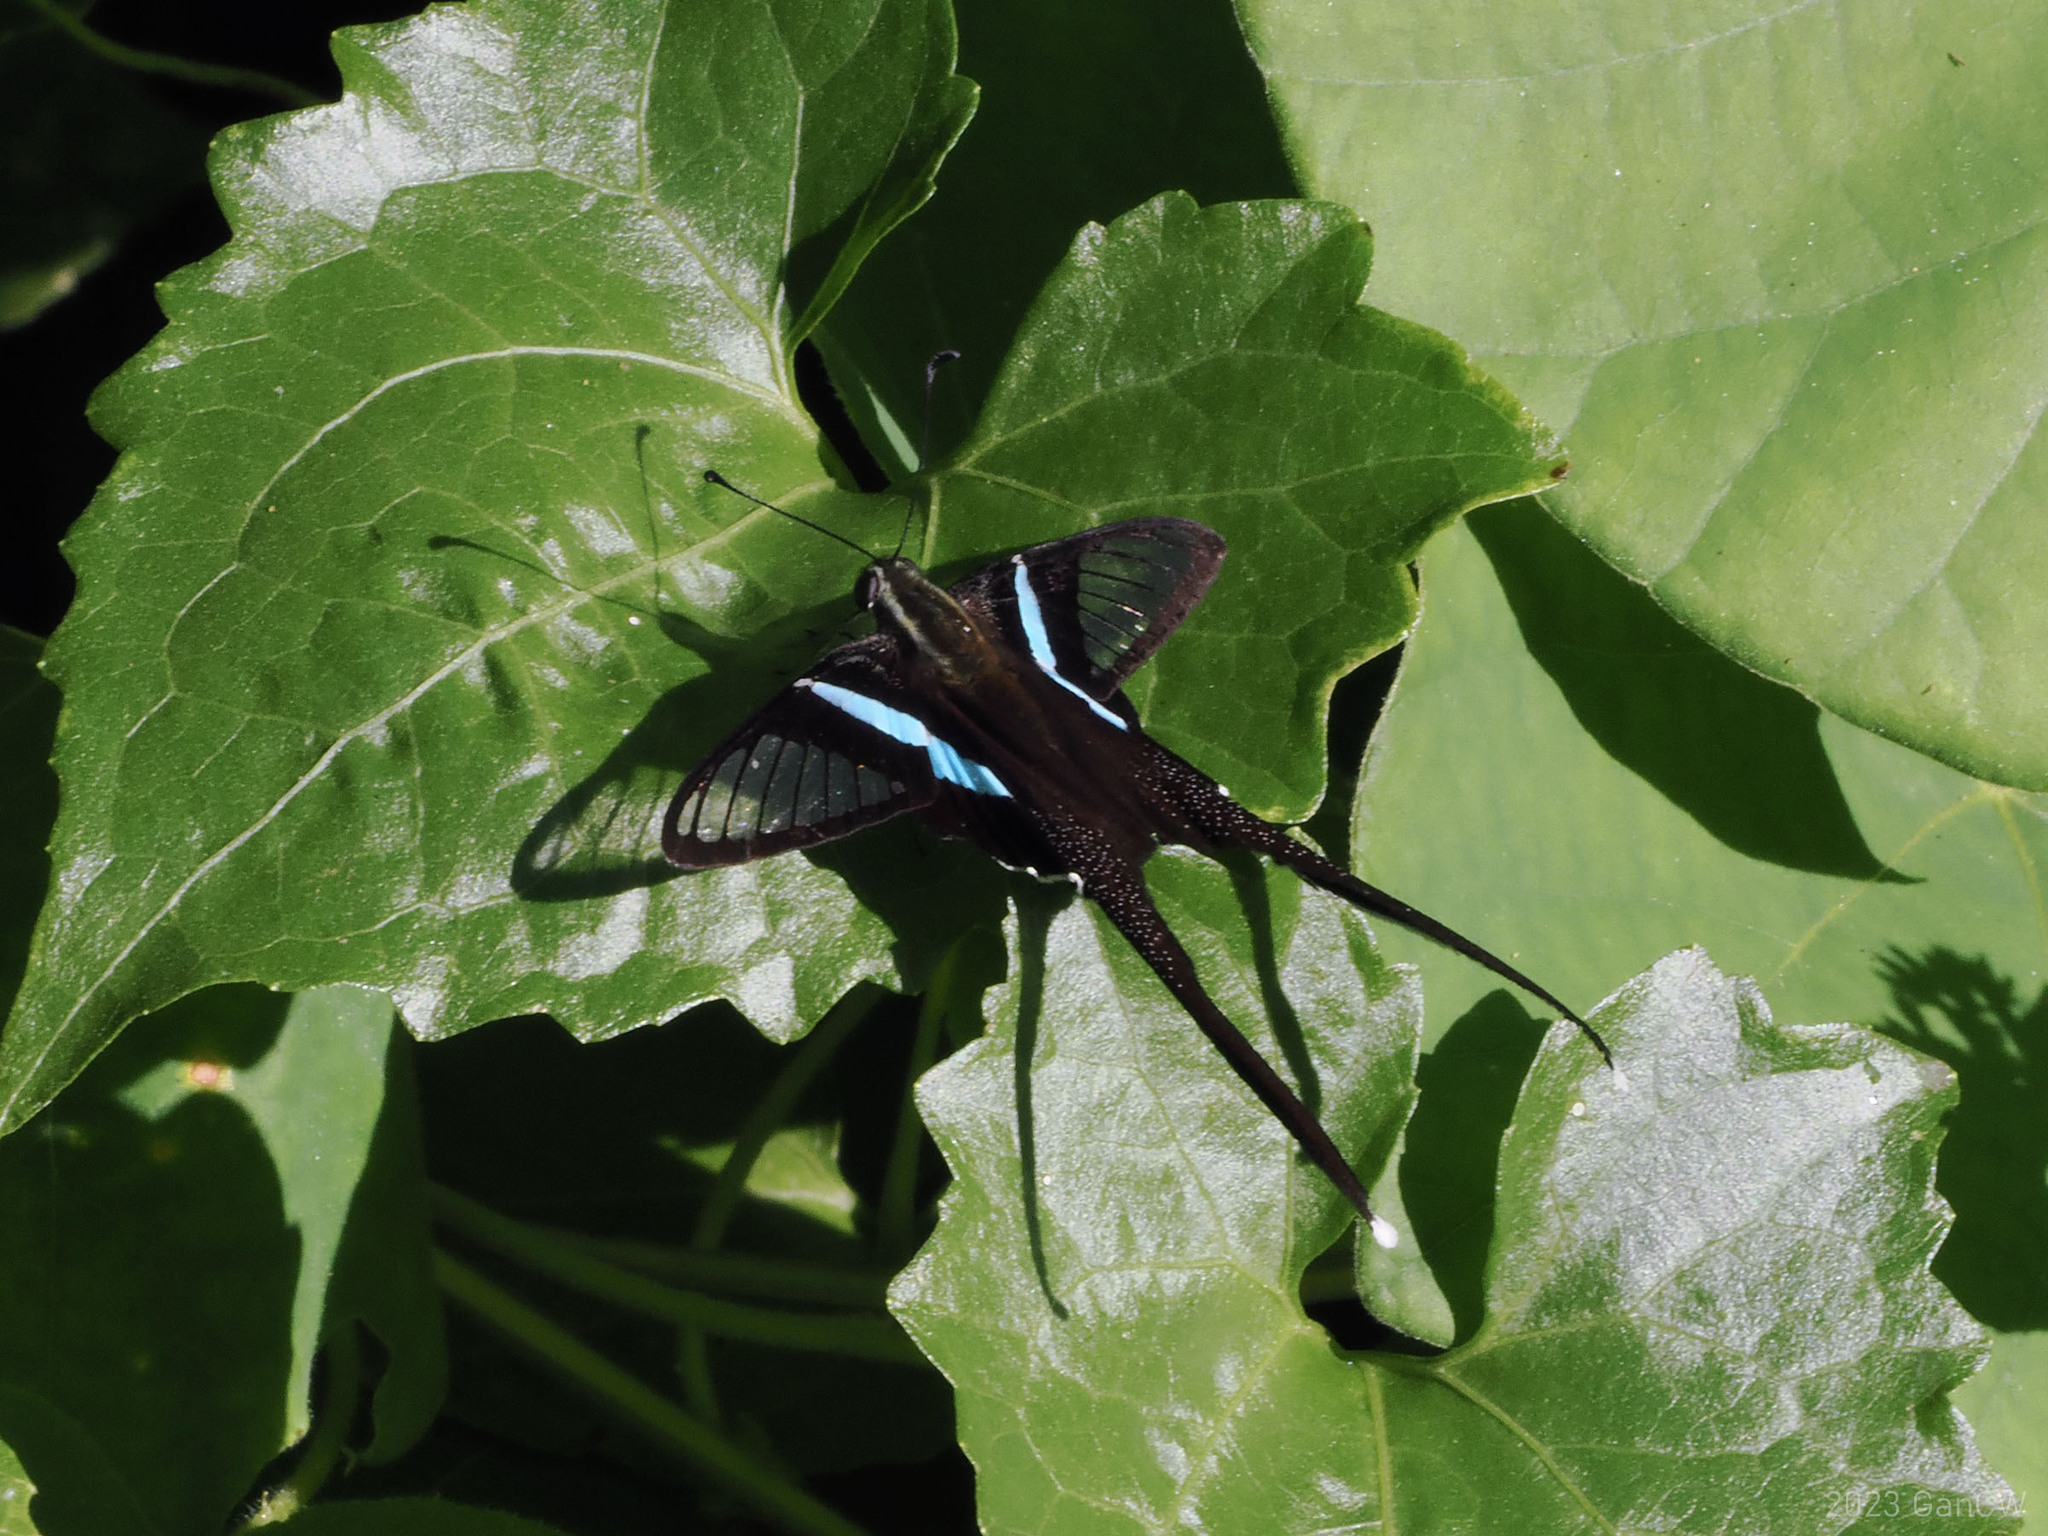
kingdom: Animalia
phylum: Arthropoda
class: Insecta
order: Lepidoptera
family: Papilionidae
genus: Lamproptera
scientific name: Lamproptera meges
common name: Green dragontail
